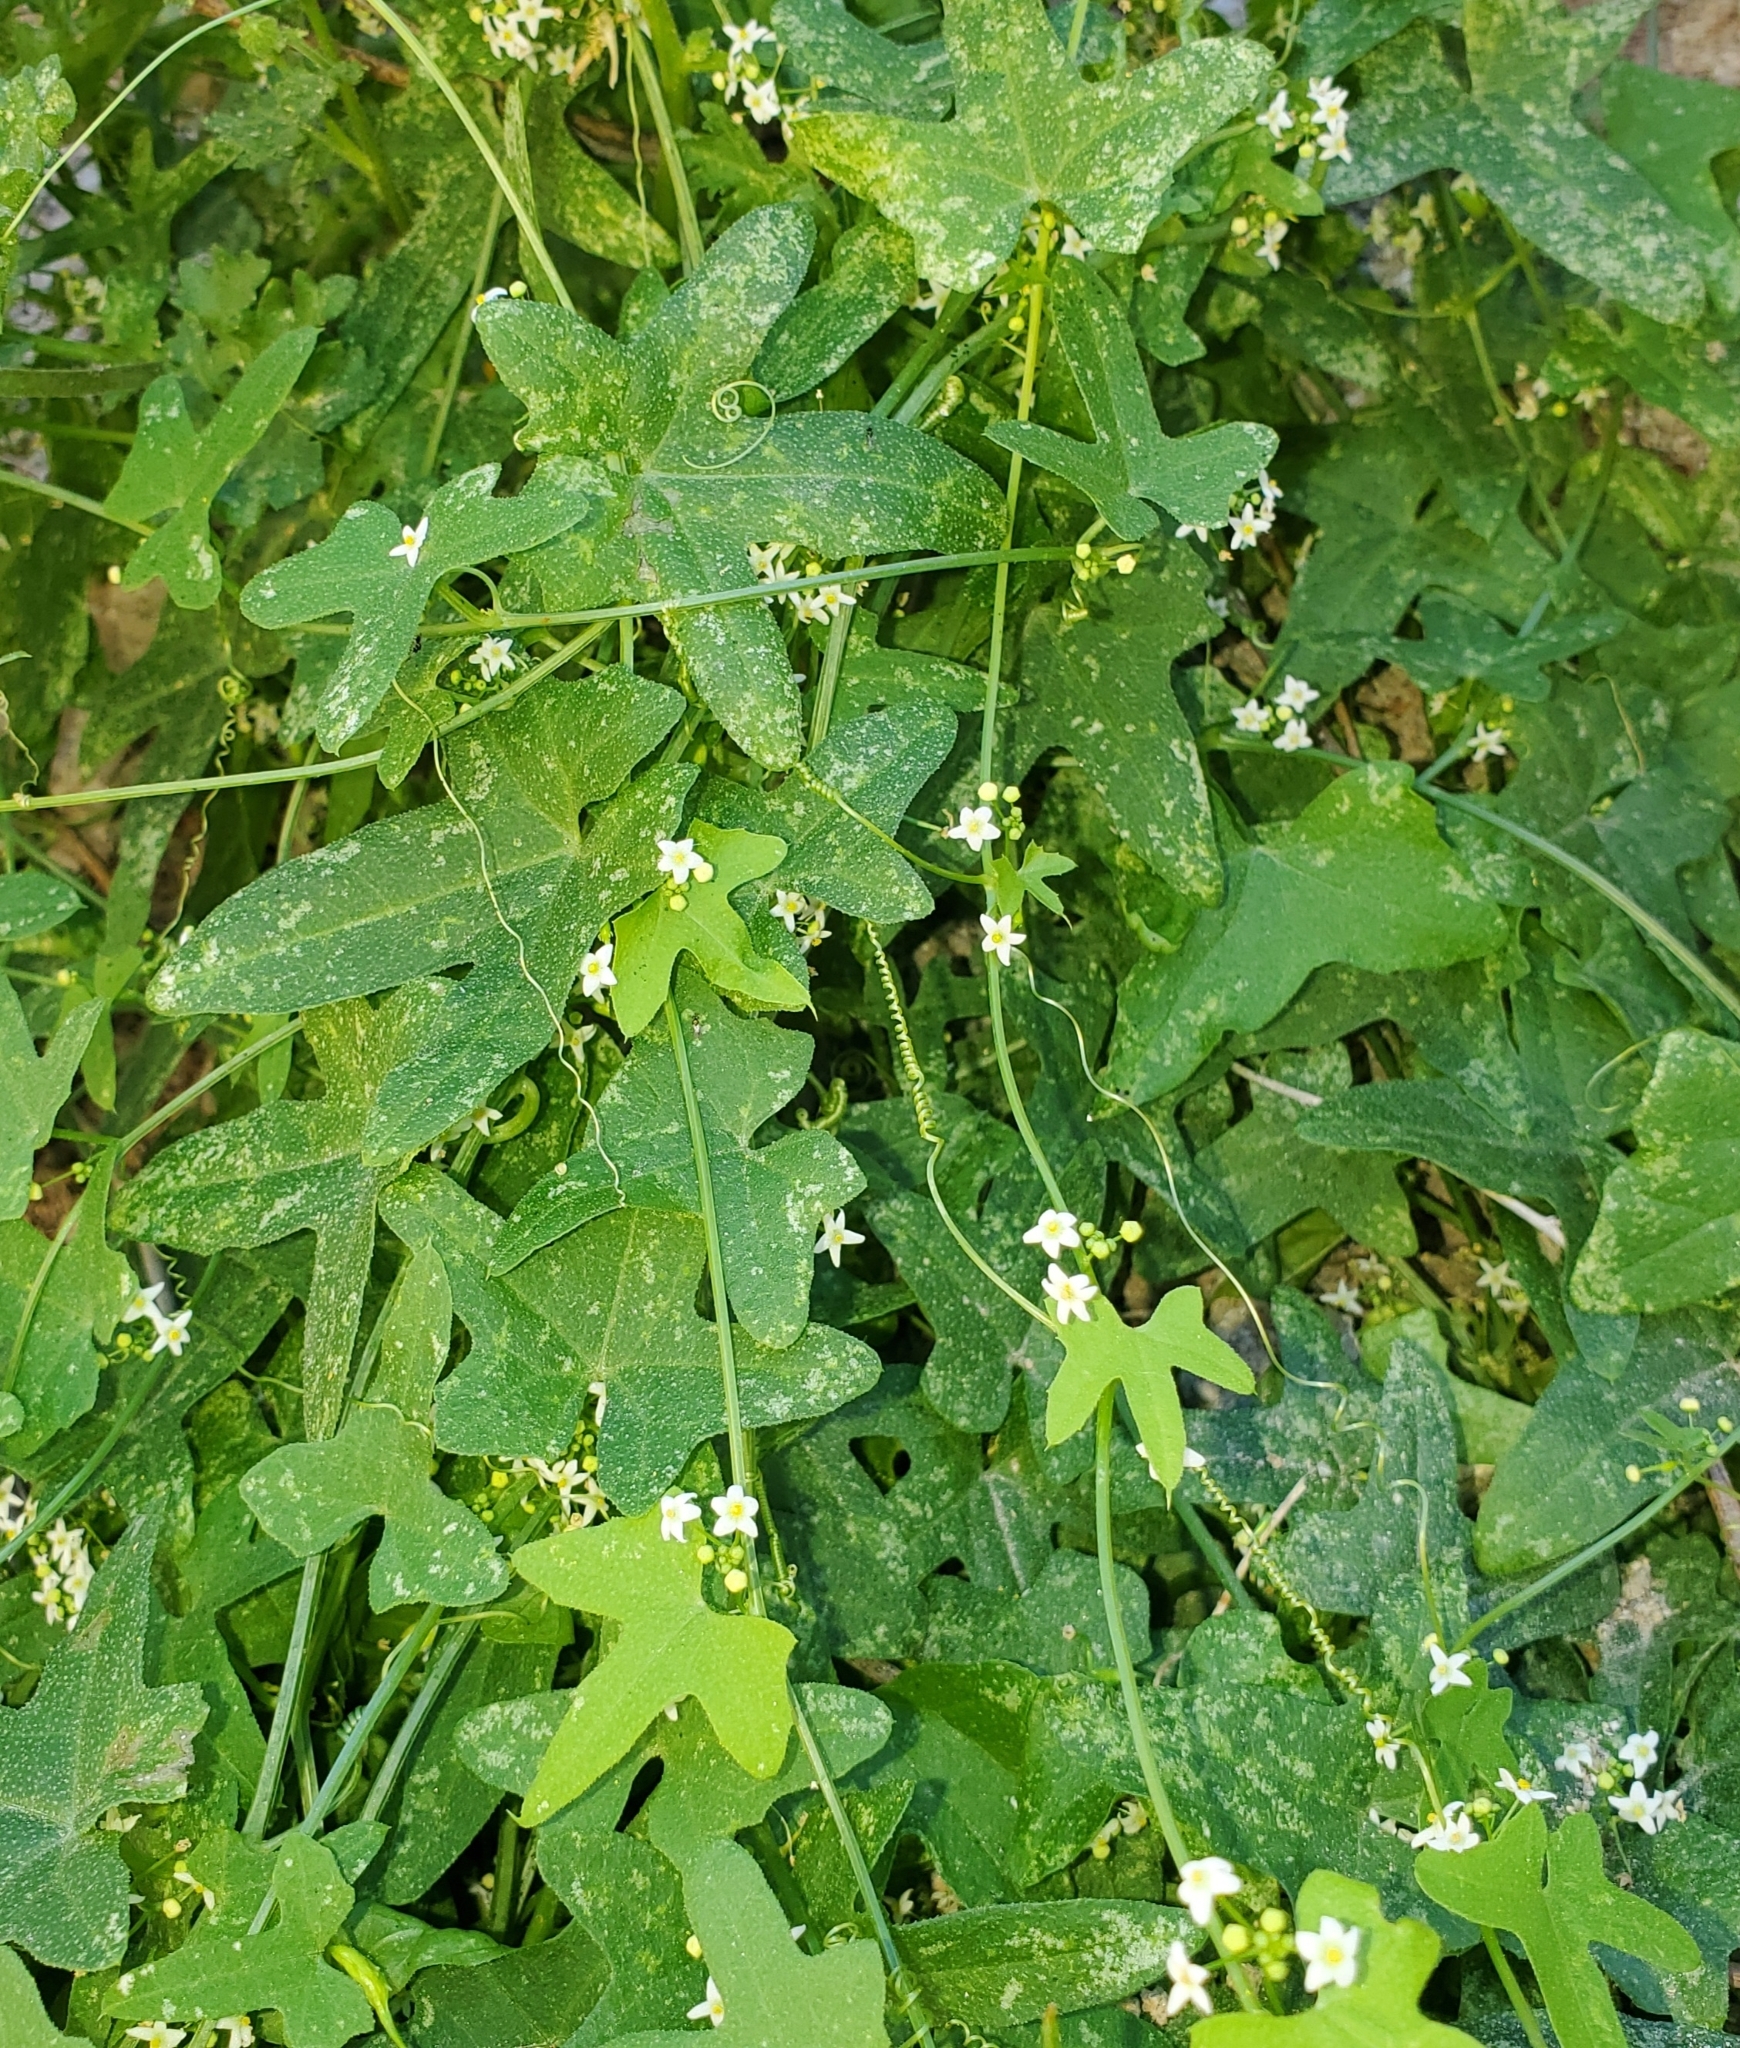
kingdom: Plantae
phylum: Tracheophyta
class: Magnoliopsida
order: Cucurbitales
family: Cucurbitaceae
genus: Echinopepon
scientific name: Echinopepon bigelovii
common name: Desert starvine
